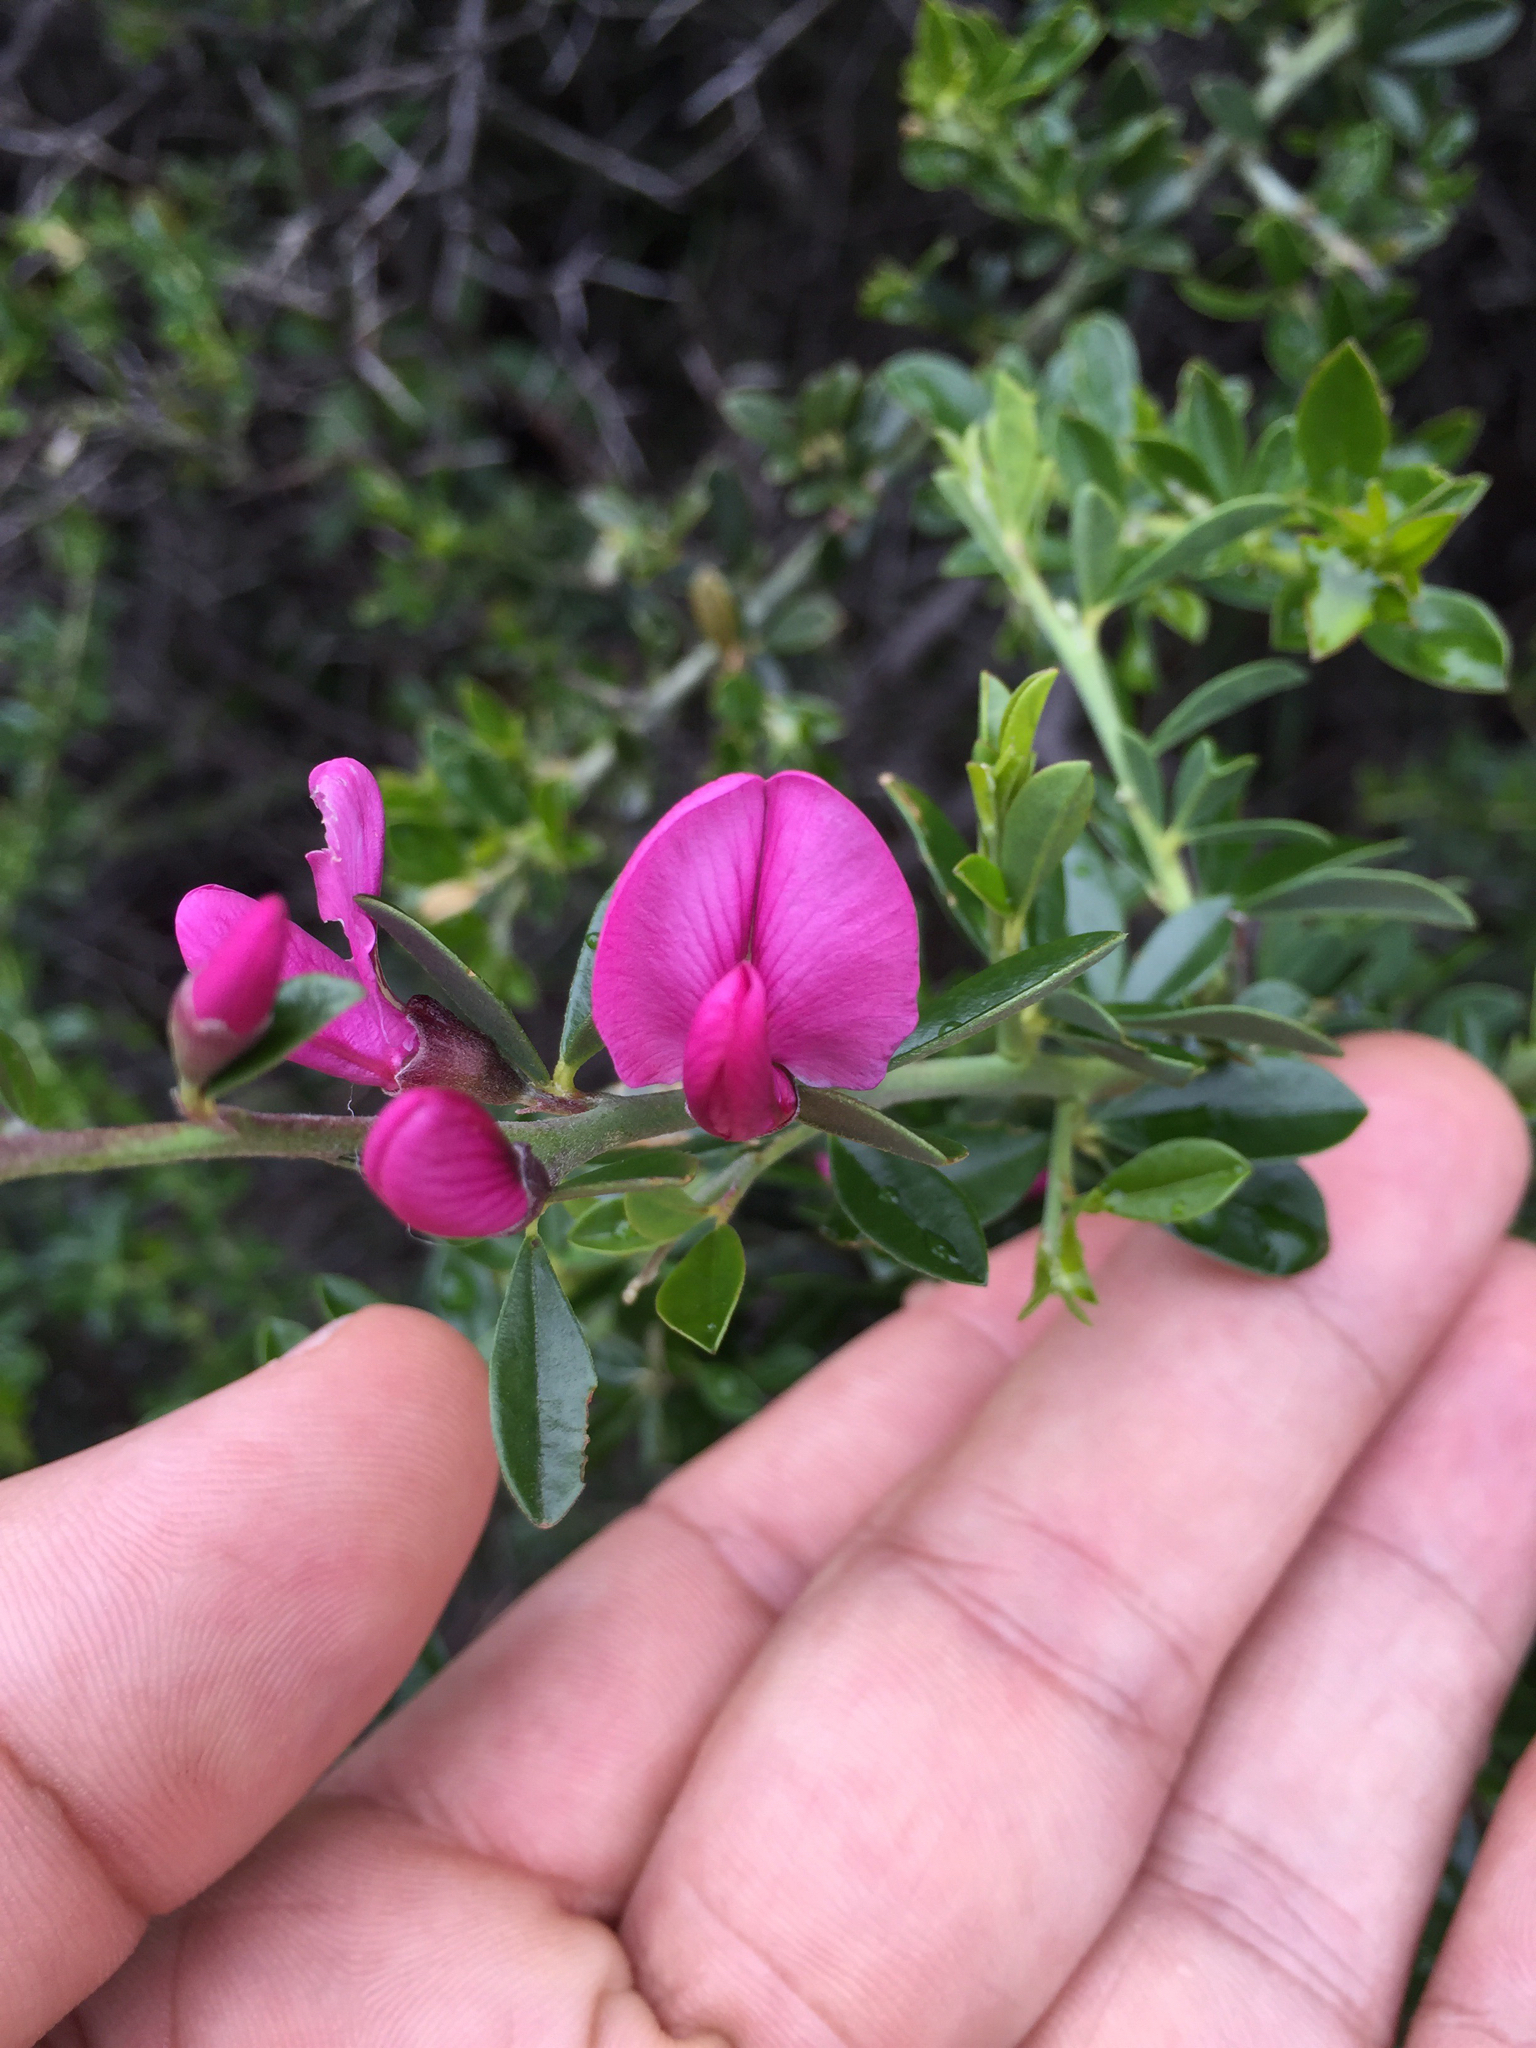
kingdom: Plantae
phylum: Tracheophyta
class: Magnoliopsida
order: Fabales
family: Fabaceae
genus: Pickeringia
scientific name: Pickeringia montana
